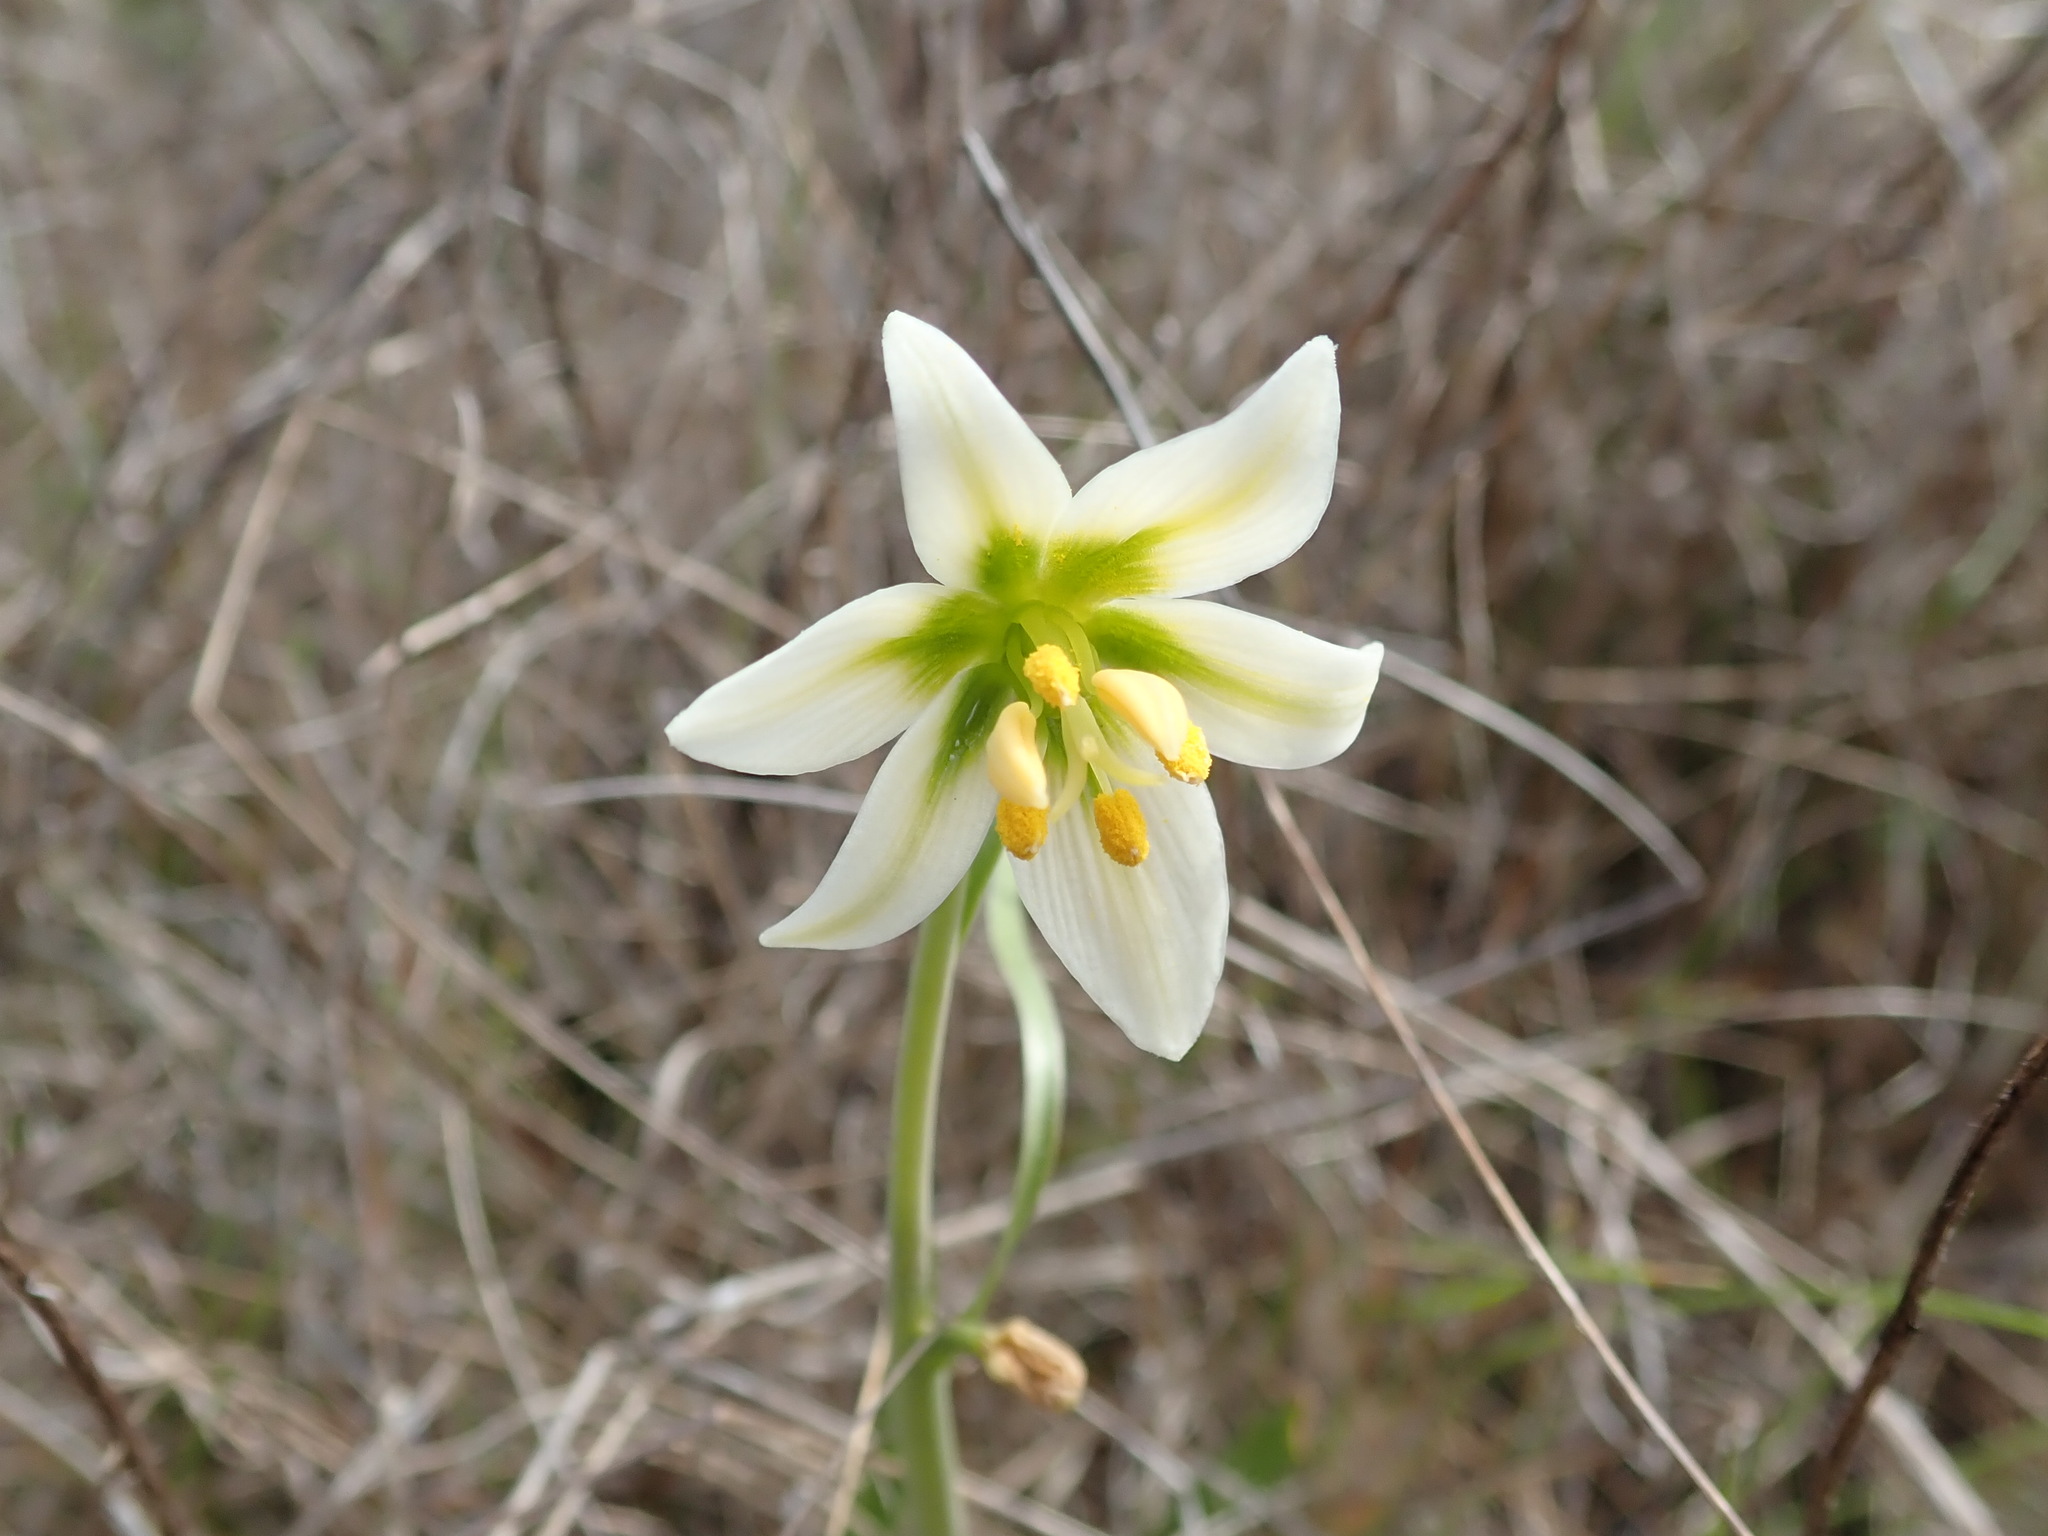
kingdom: Plantae
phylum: Tracheophyta
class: Liliopsida
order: Liliales
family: Liliaceae
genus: Fritillaria
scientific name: Fritillaria liliacea
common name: Fragrant fritillary
